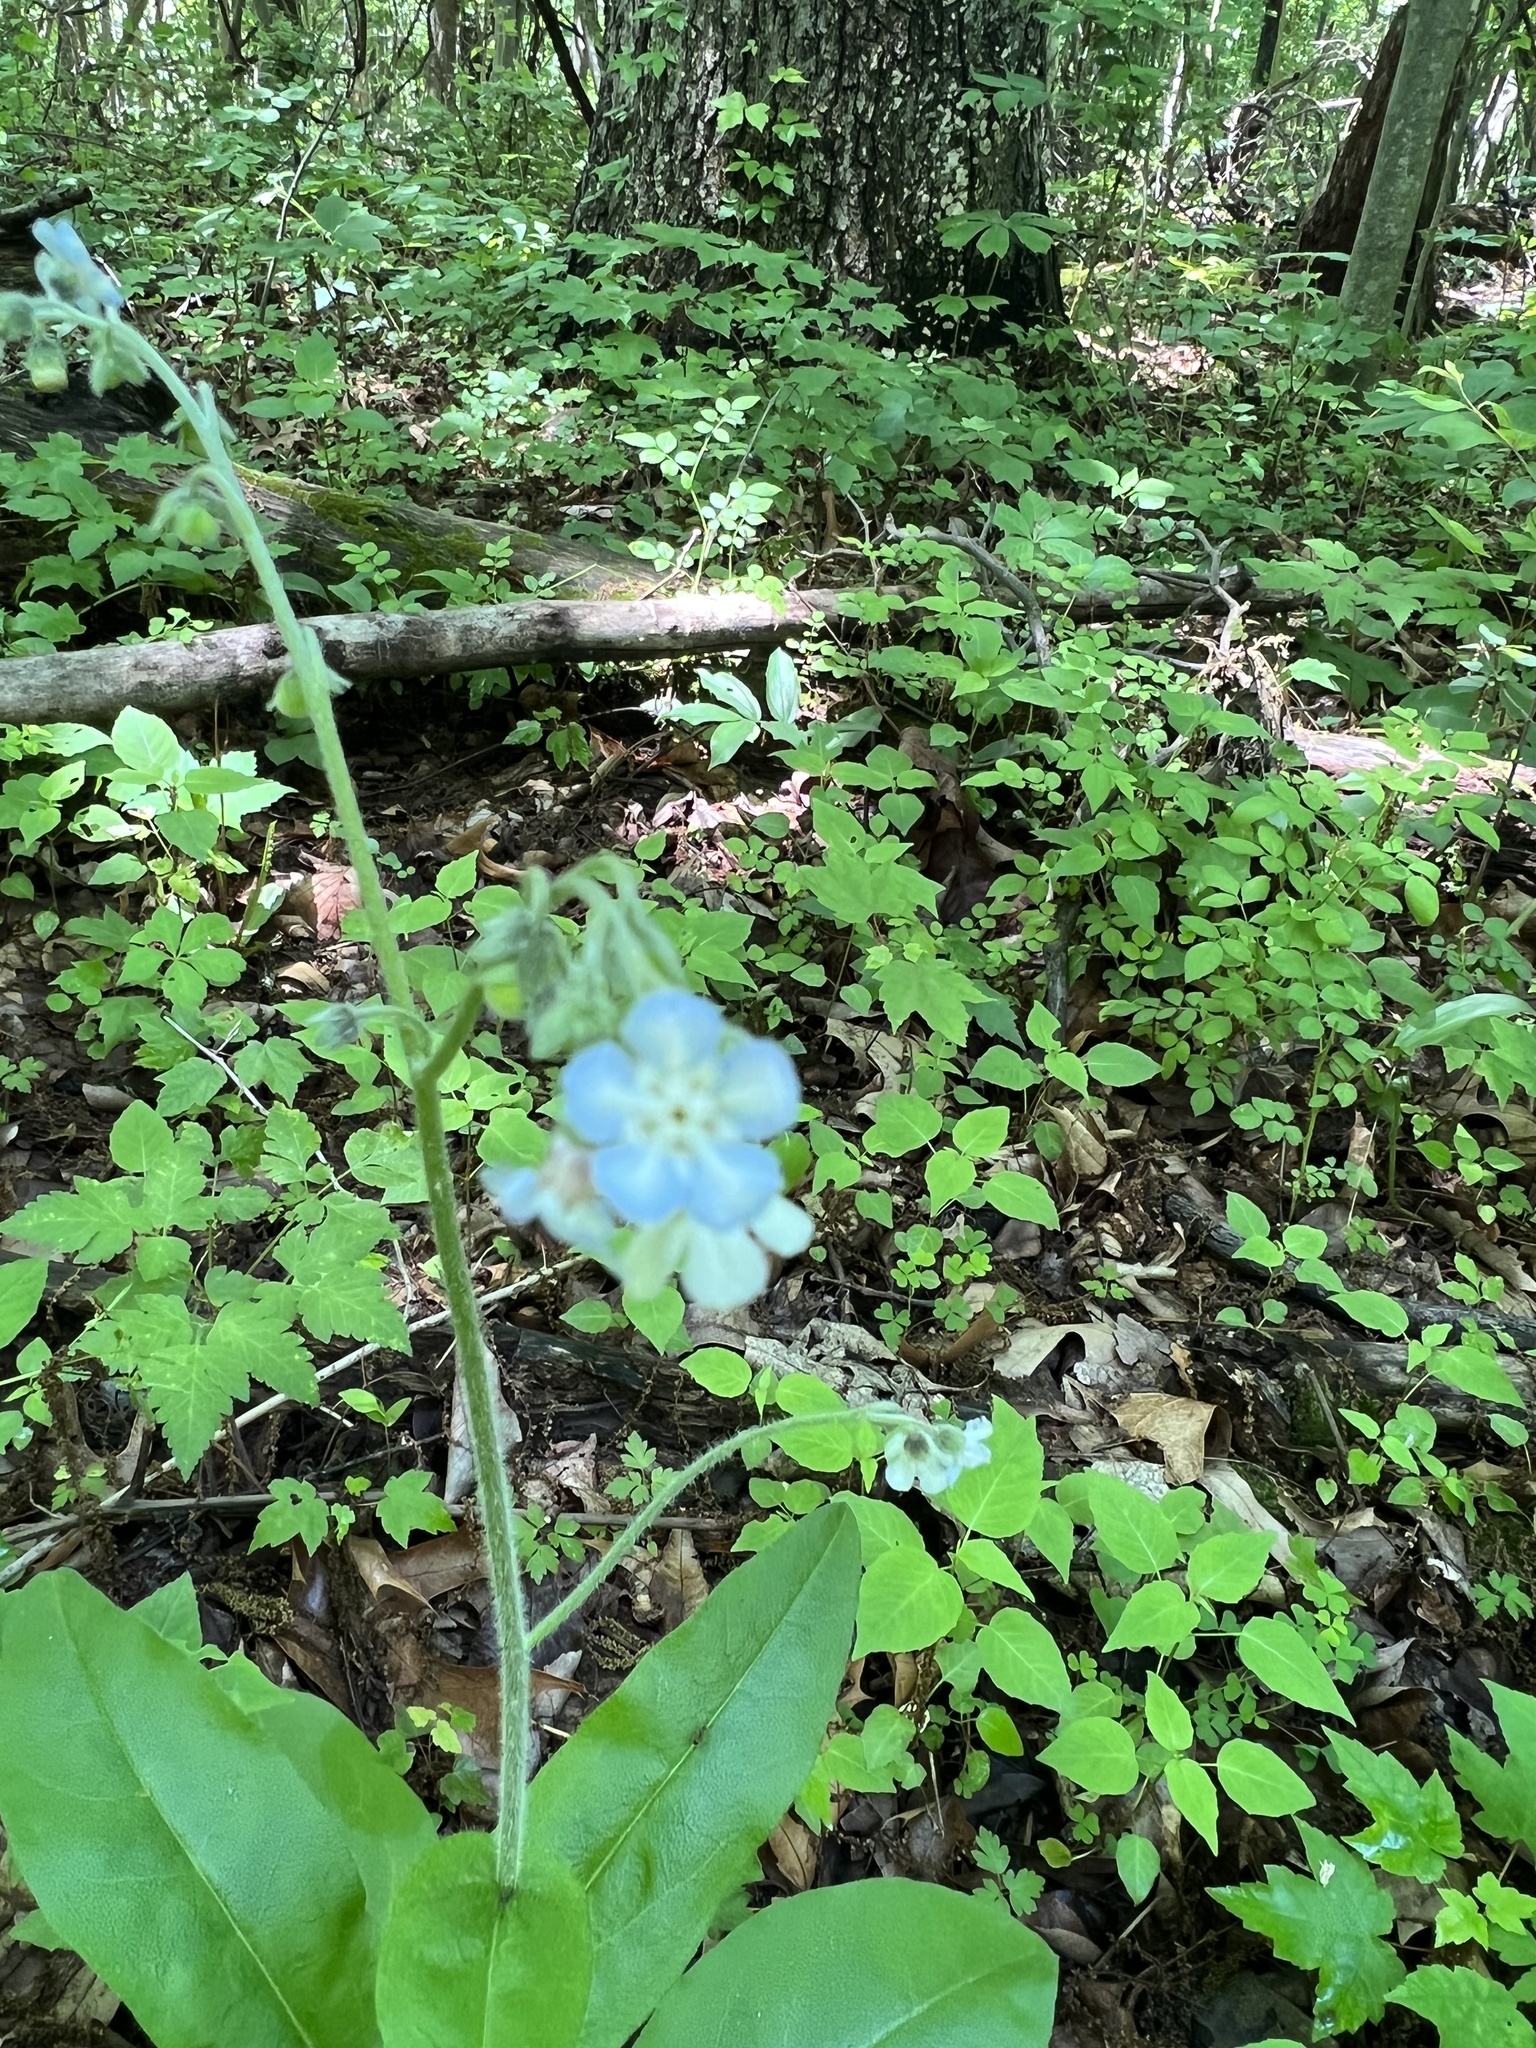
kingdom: Plantae
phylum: Tracheophyta
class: Magnoliopsida
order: Boraginales
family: Boraginaceae
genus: Andersonglossum
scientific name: Andersonglossum virginianum
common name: Wild comfrey
